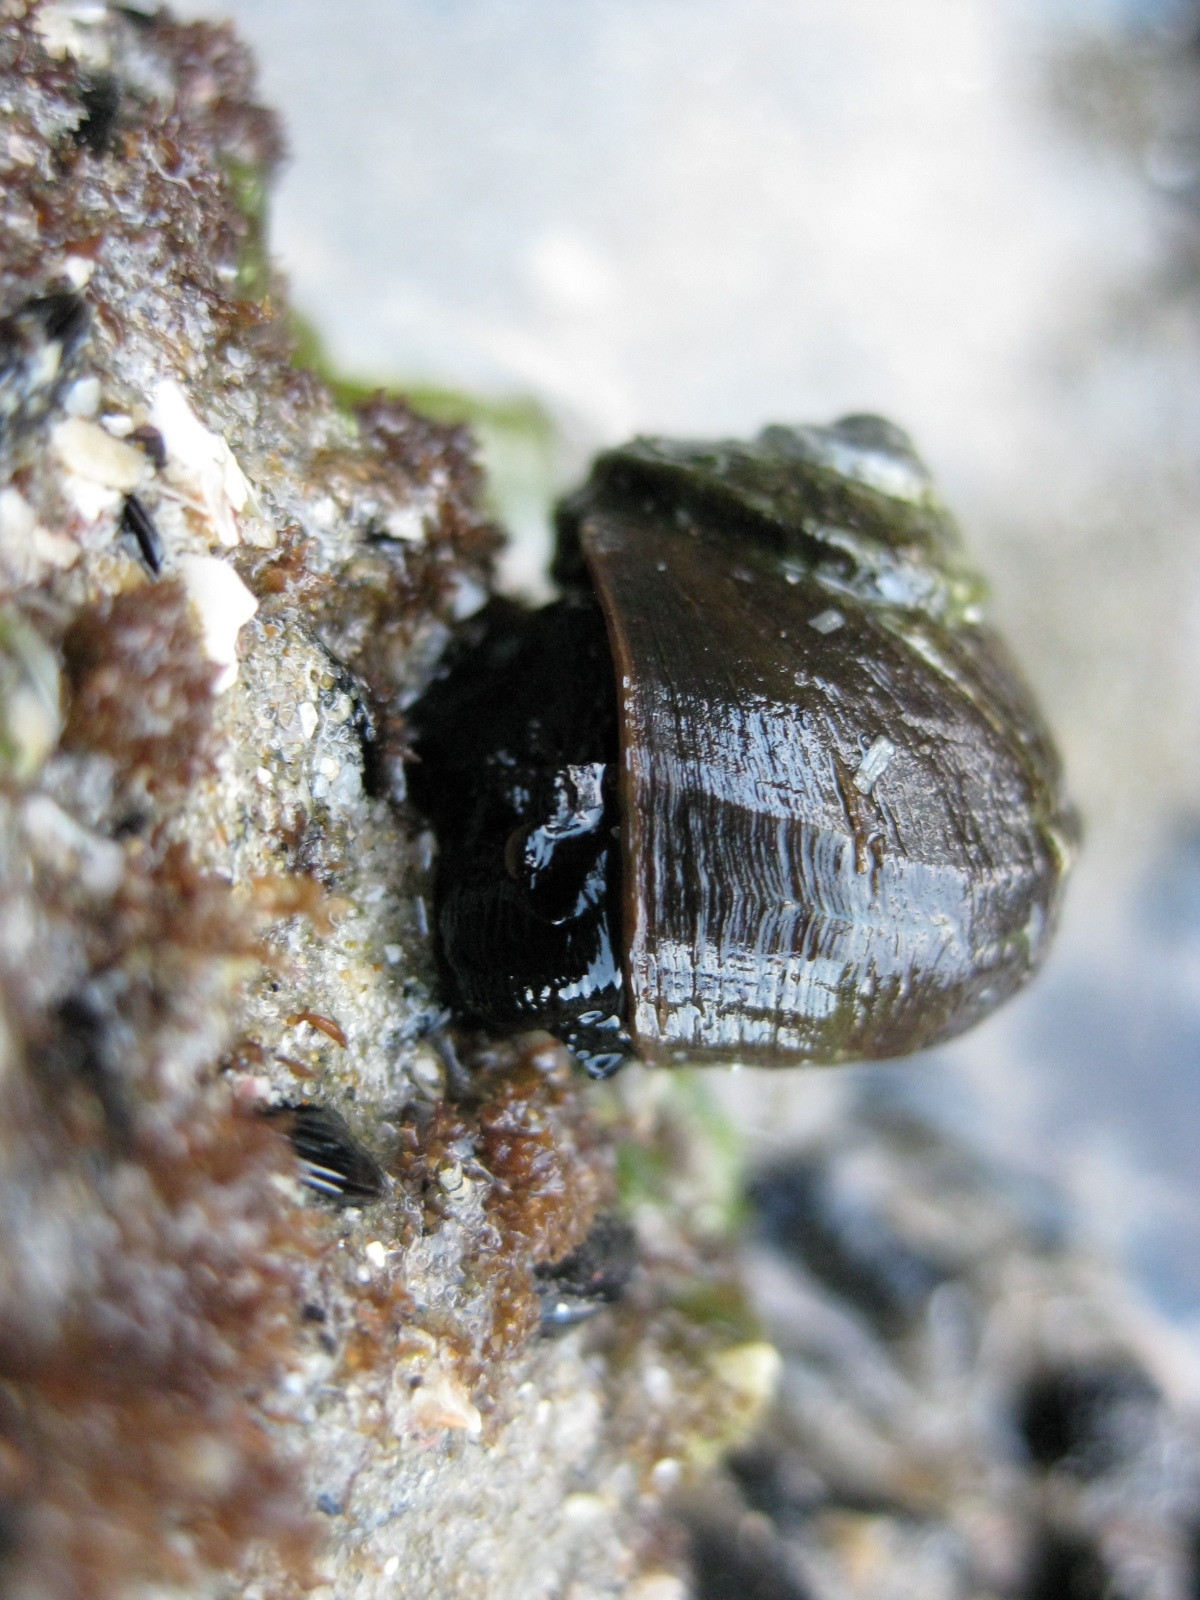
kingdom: Animalia
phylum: Mollusca
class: Gastropoda
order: Trochida
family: Turbinidae
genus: Lunella
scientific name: Lunella smaragda
